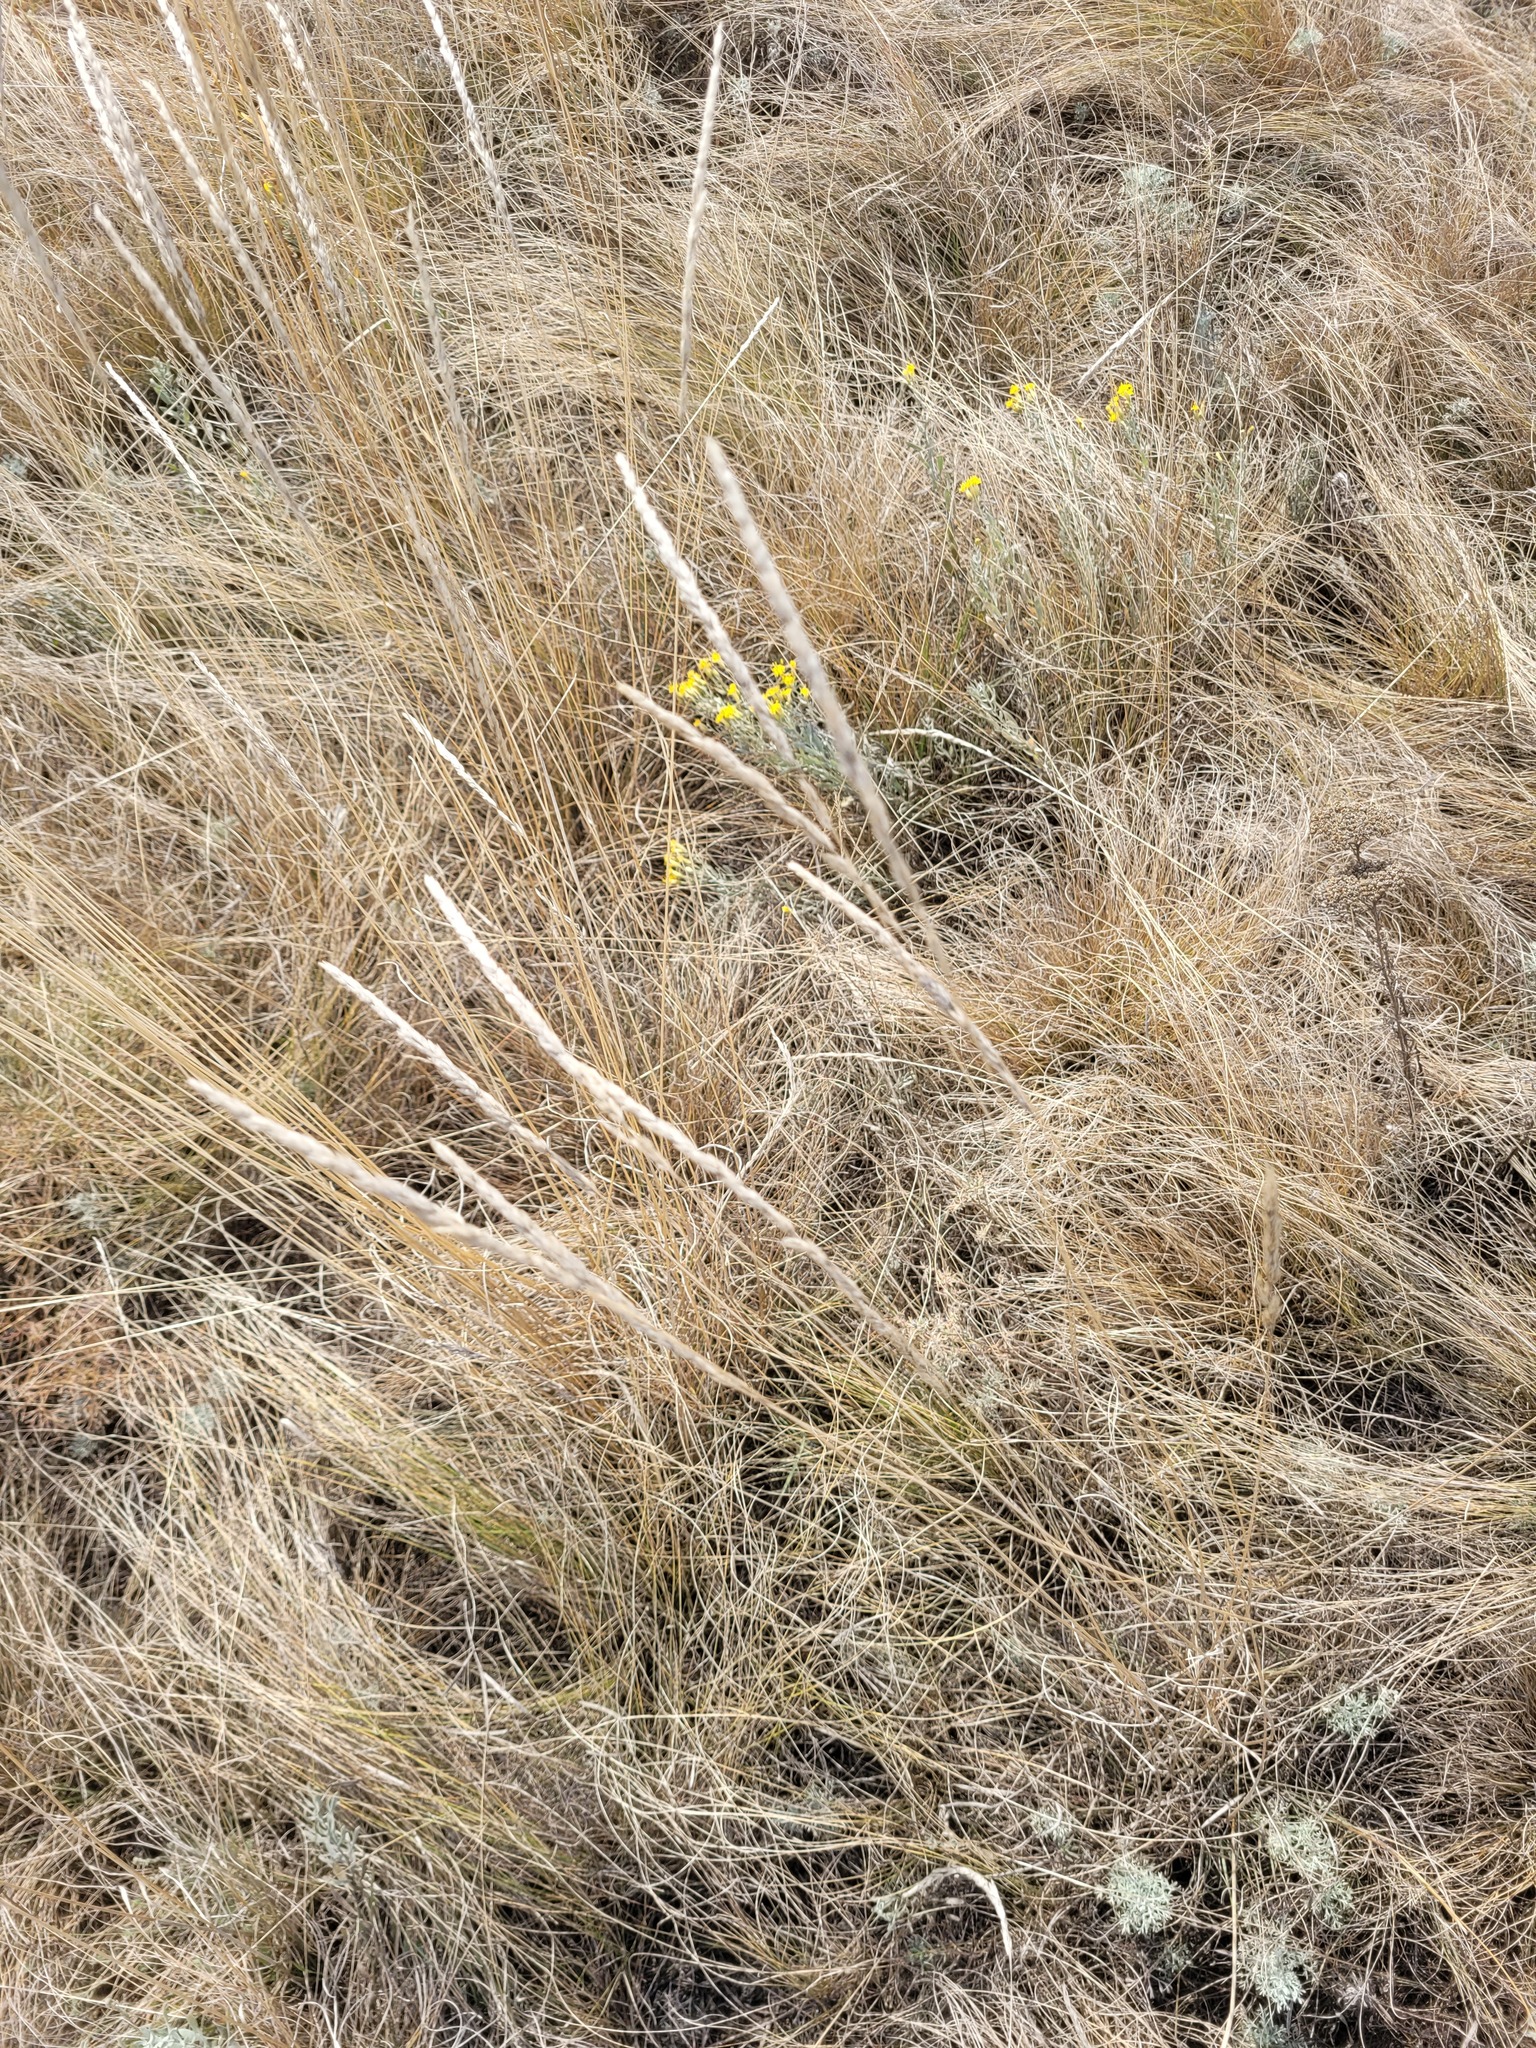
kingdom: Plantae
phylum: Tracheophyta
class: Liliopsida
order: Poales
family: Poaceae
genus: Koeleria
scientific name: Koeleria macrantha
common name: Crested hair-grass
